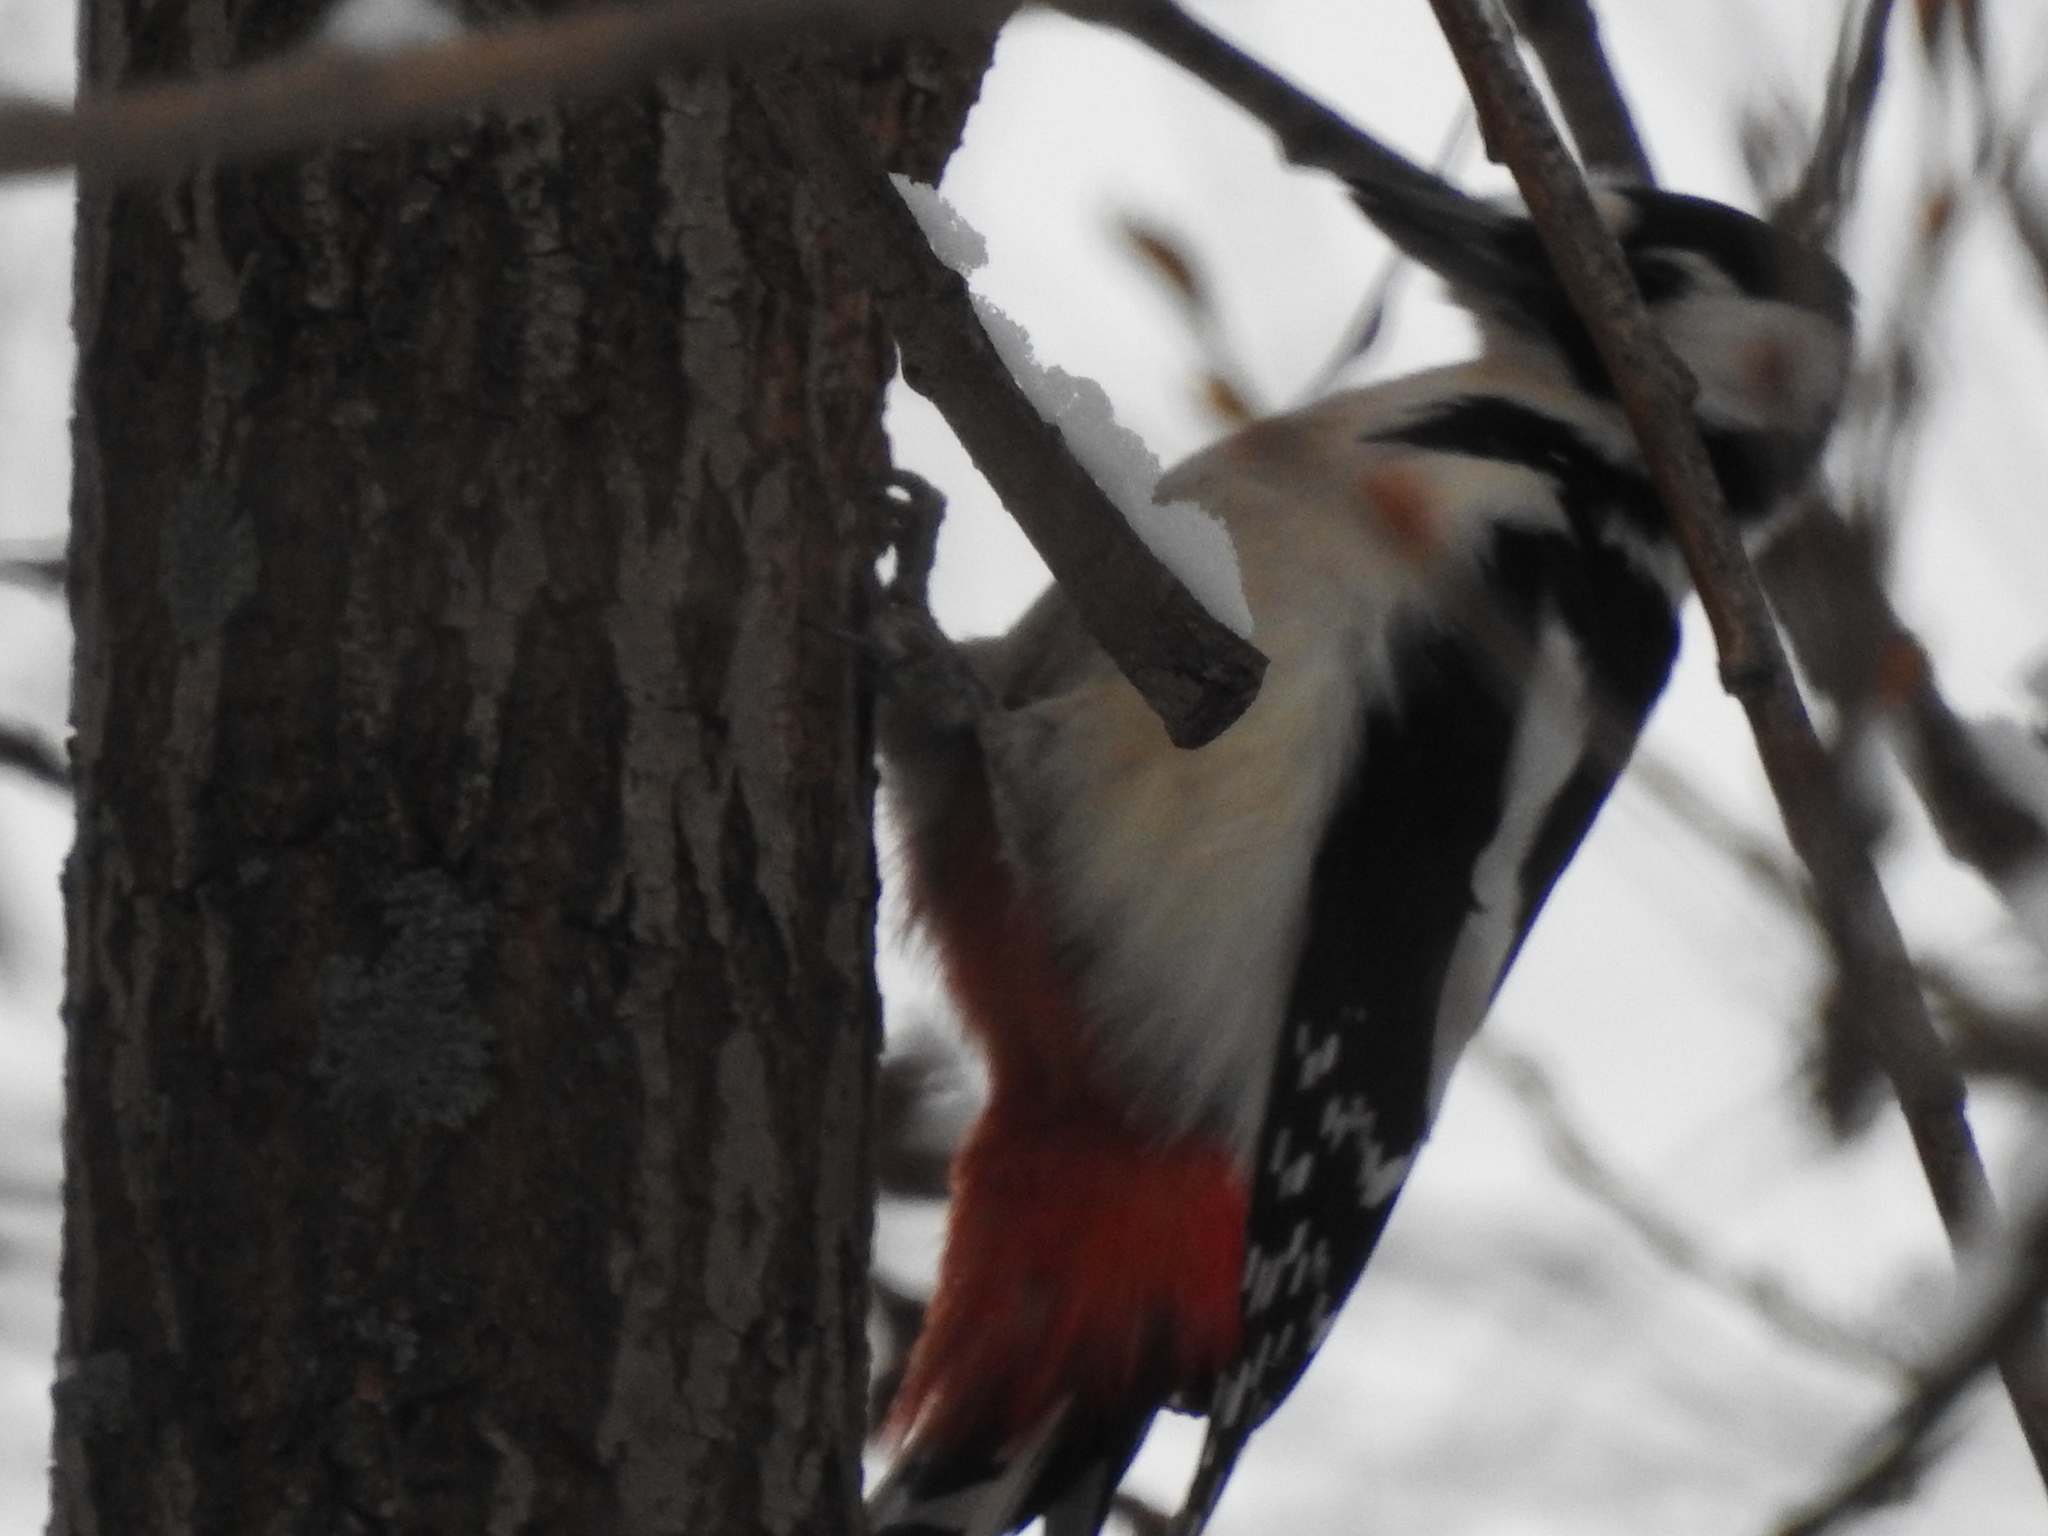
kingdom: Animalia
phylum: Chordata
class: Aves
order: Piciformes
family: Picidae
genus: Dendrocopos
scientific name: Dendrocopos major
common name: Great spotted woodpecker
